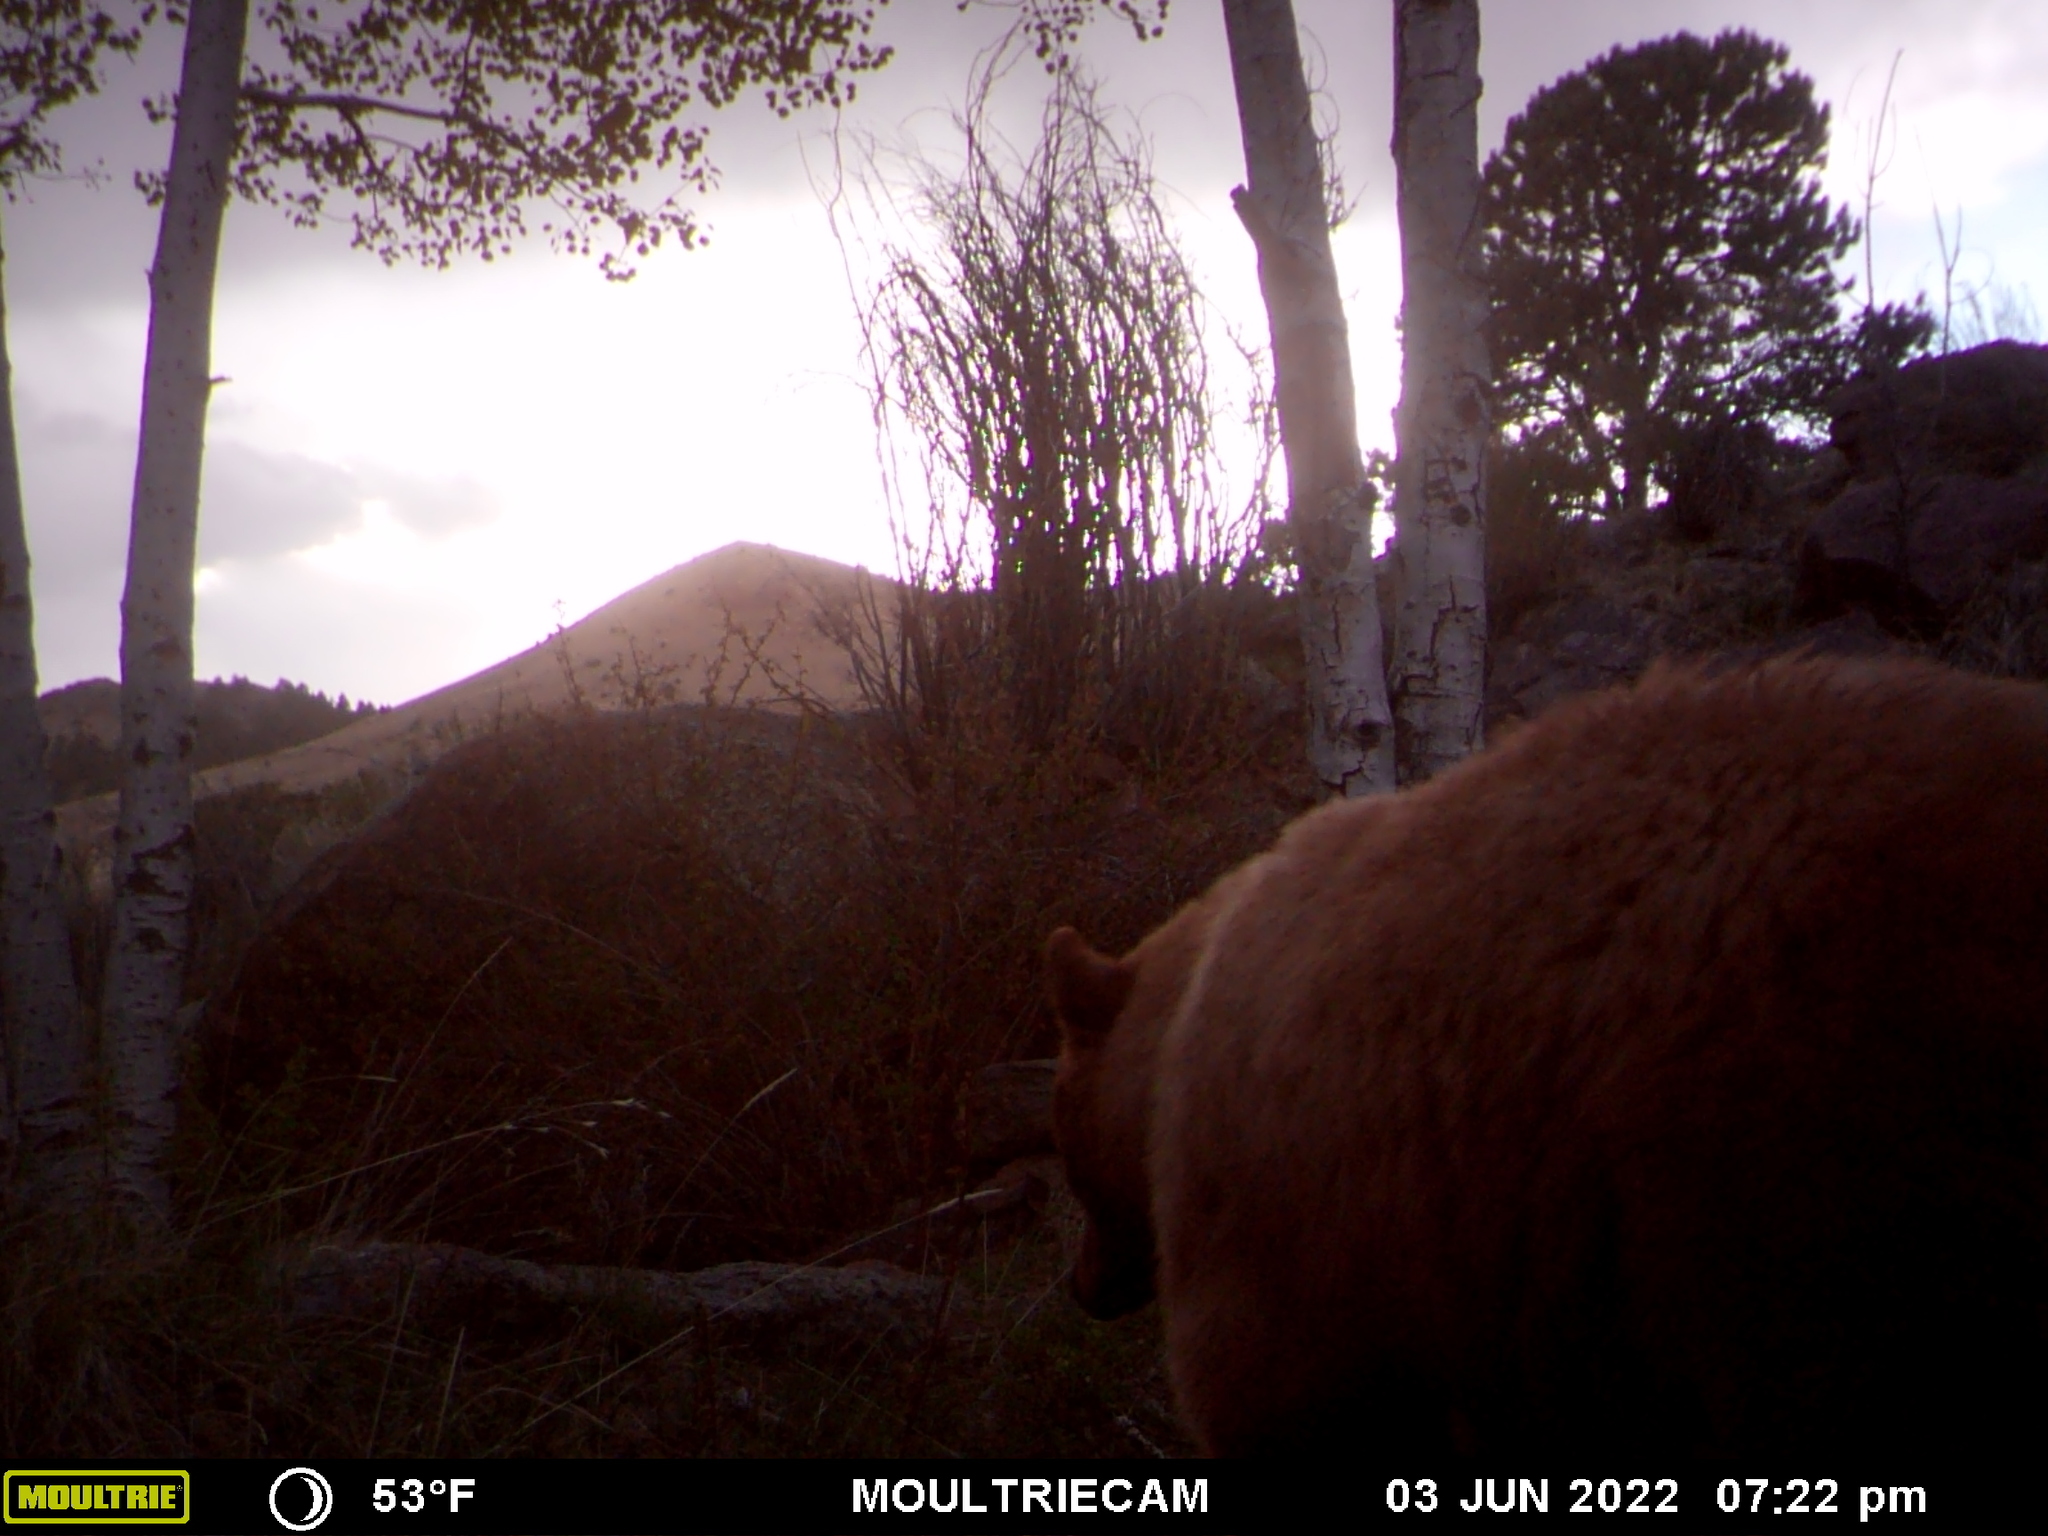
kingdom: Animalia
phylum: Chordata
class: Mammalia
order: Carnivora
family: Ursidae
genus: Ursus
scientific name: Ursus americanus
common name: American black bear
